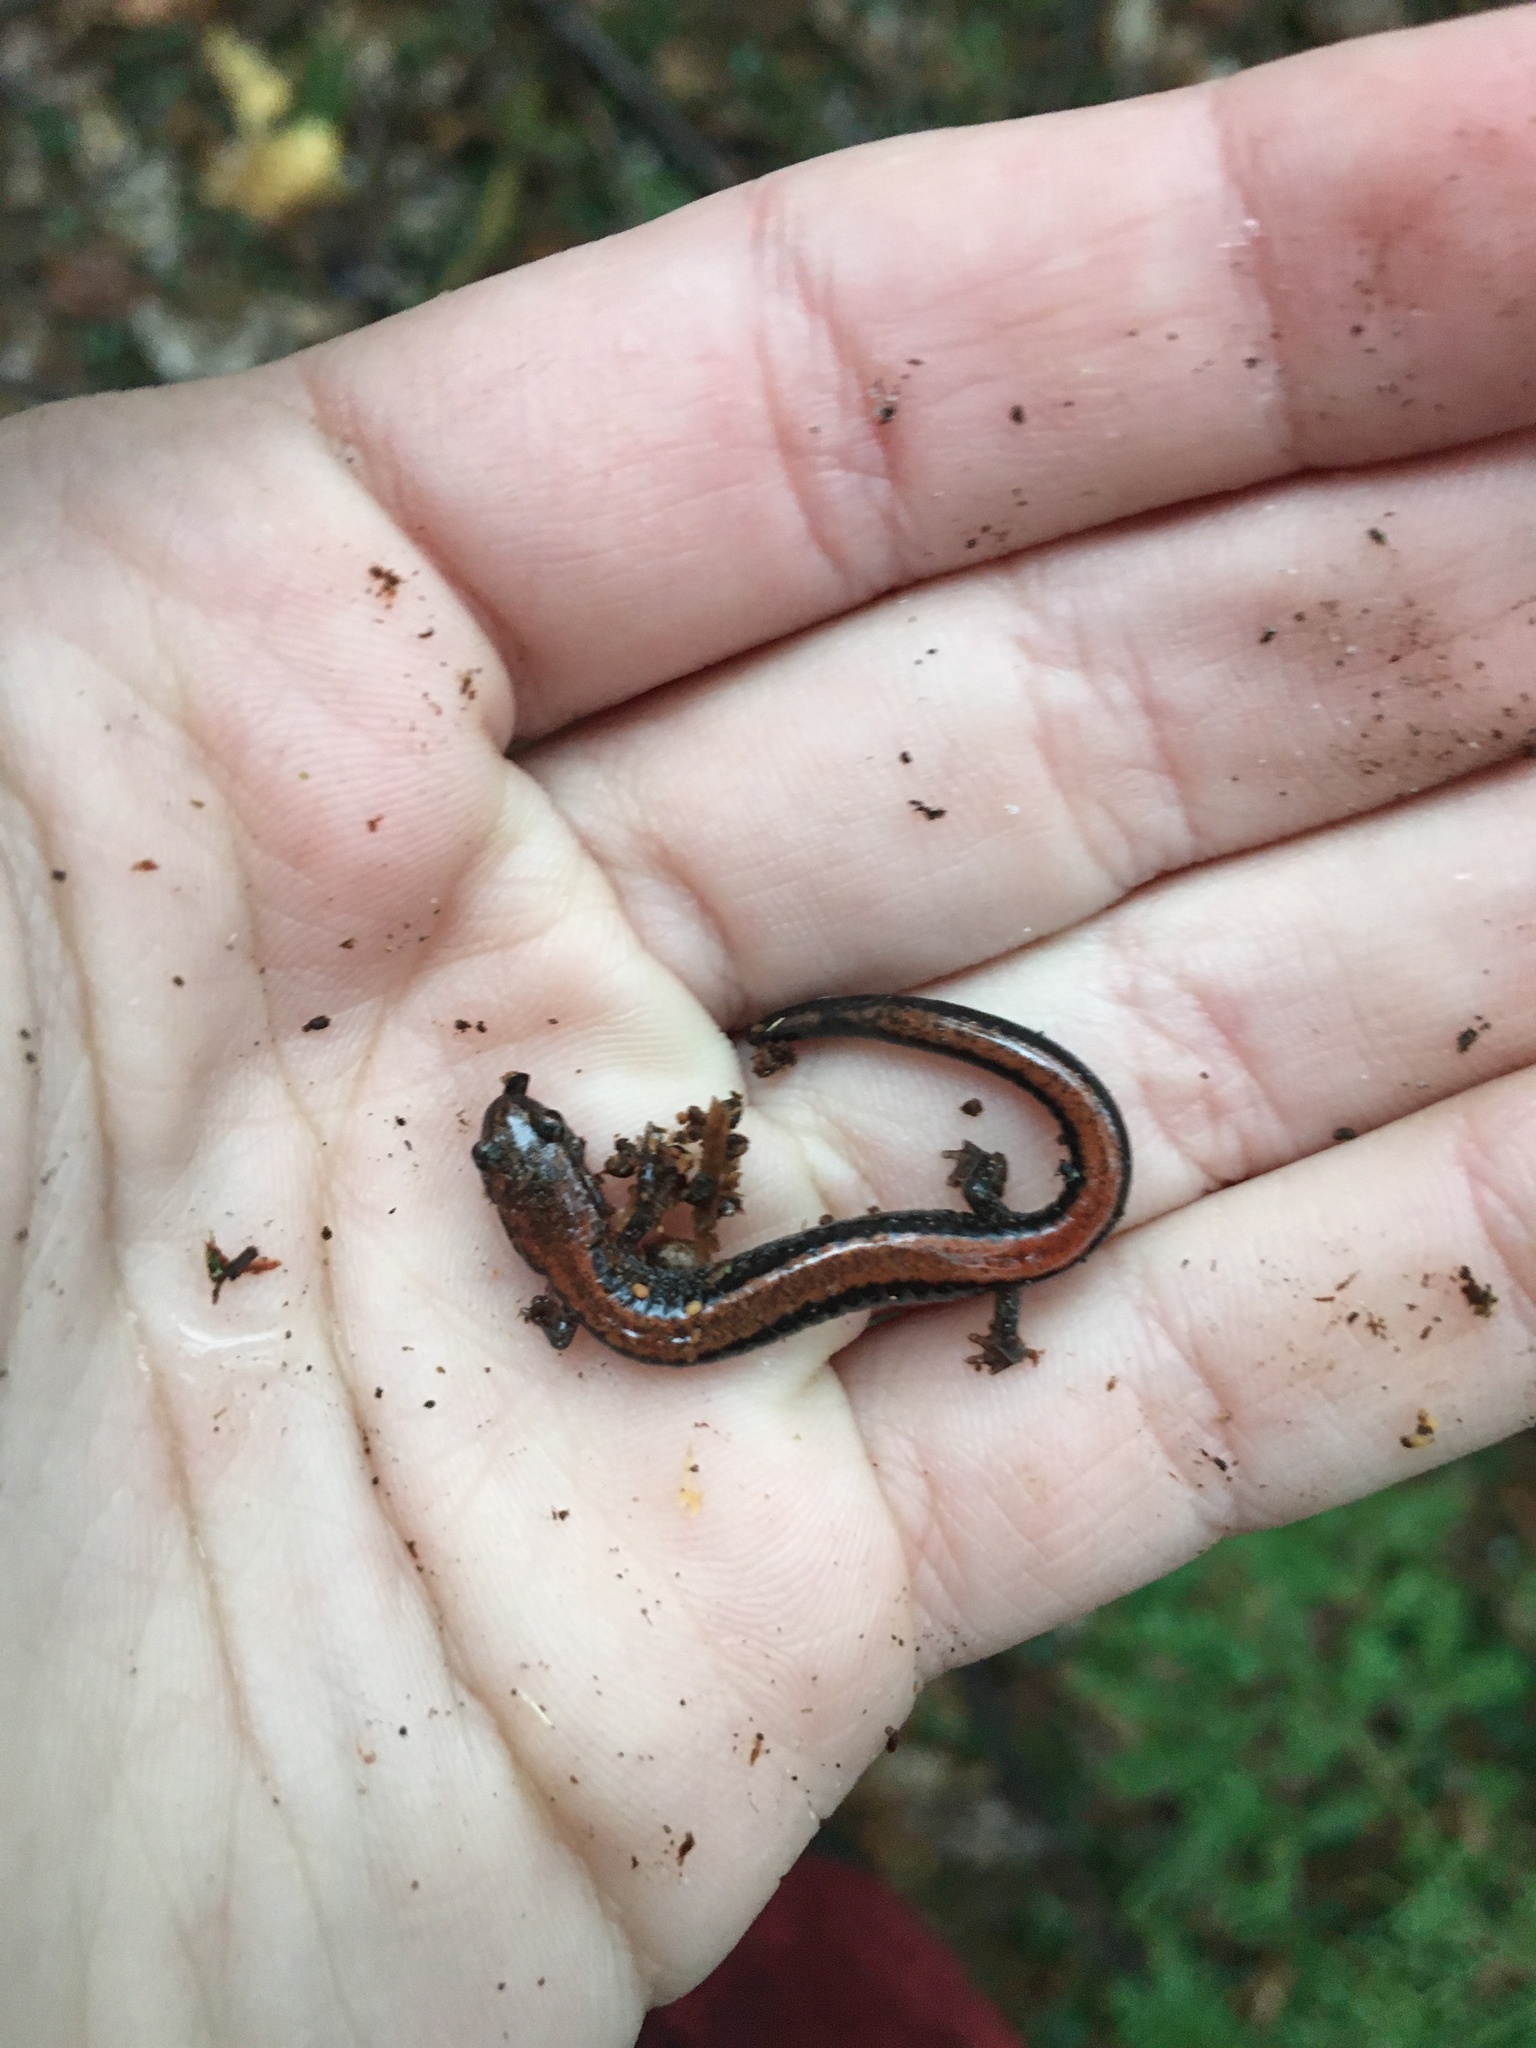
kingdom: Animalia
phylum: Chordata
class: Amphibia
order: Caudata
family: Plethodontidae
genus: Plethodon
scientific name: Plethodon cinereus
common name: Redback salamander
